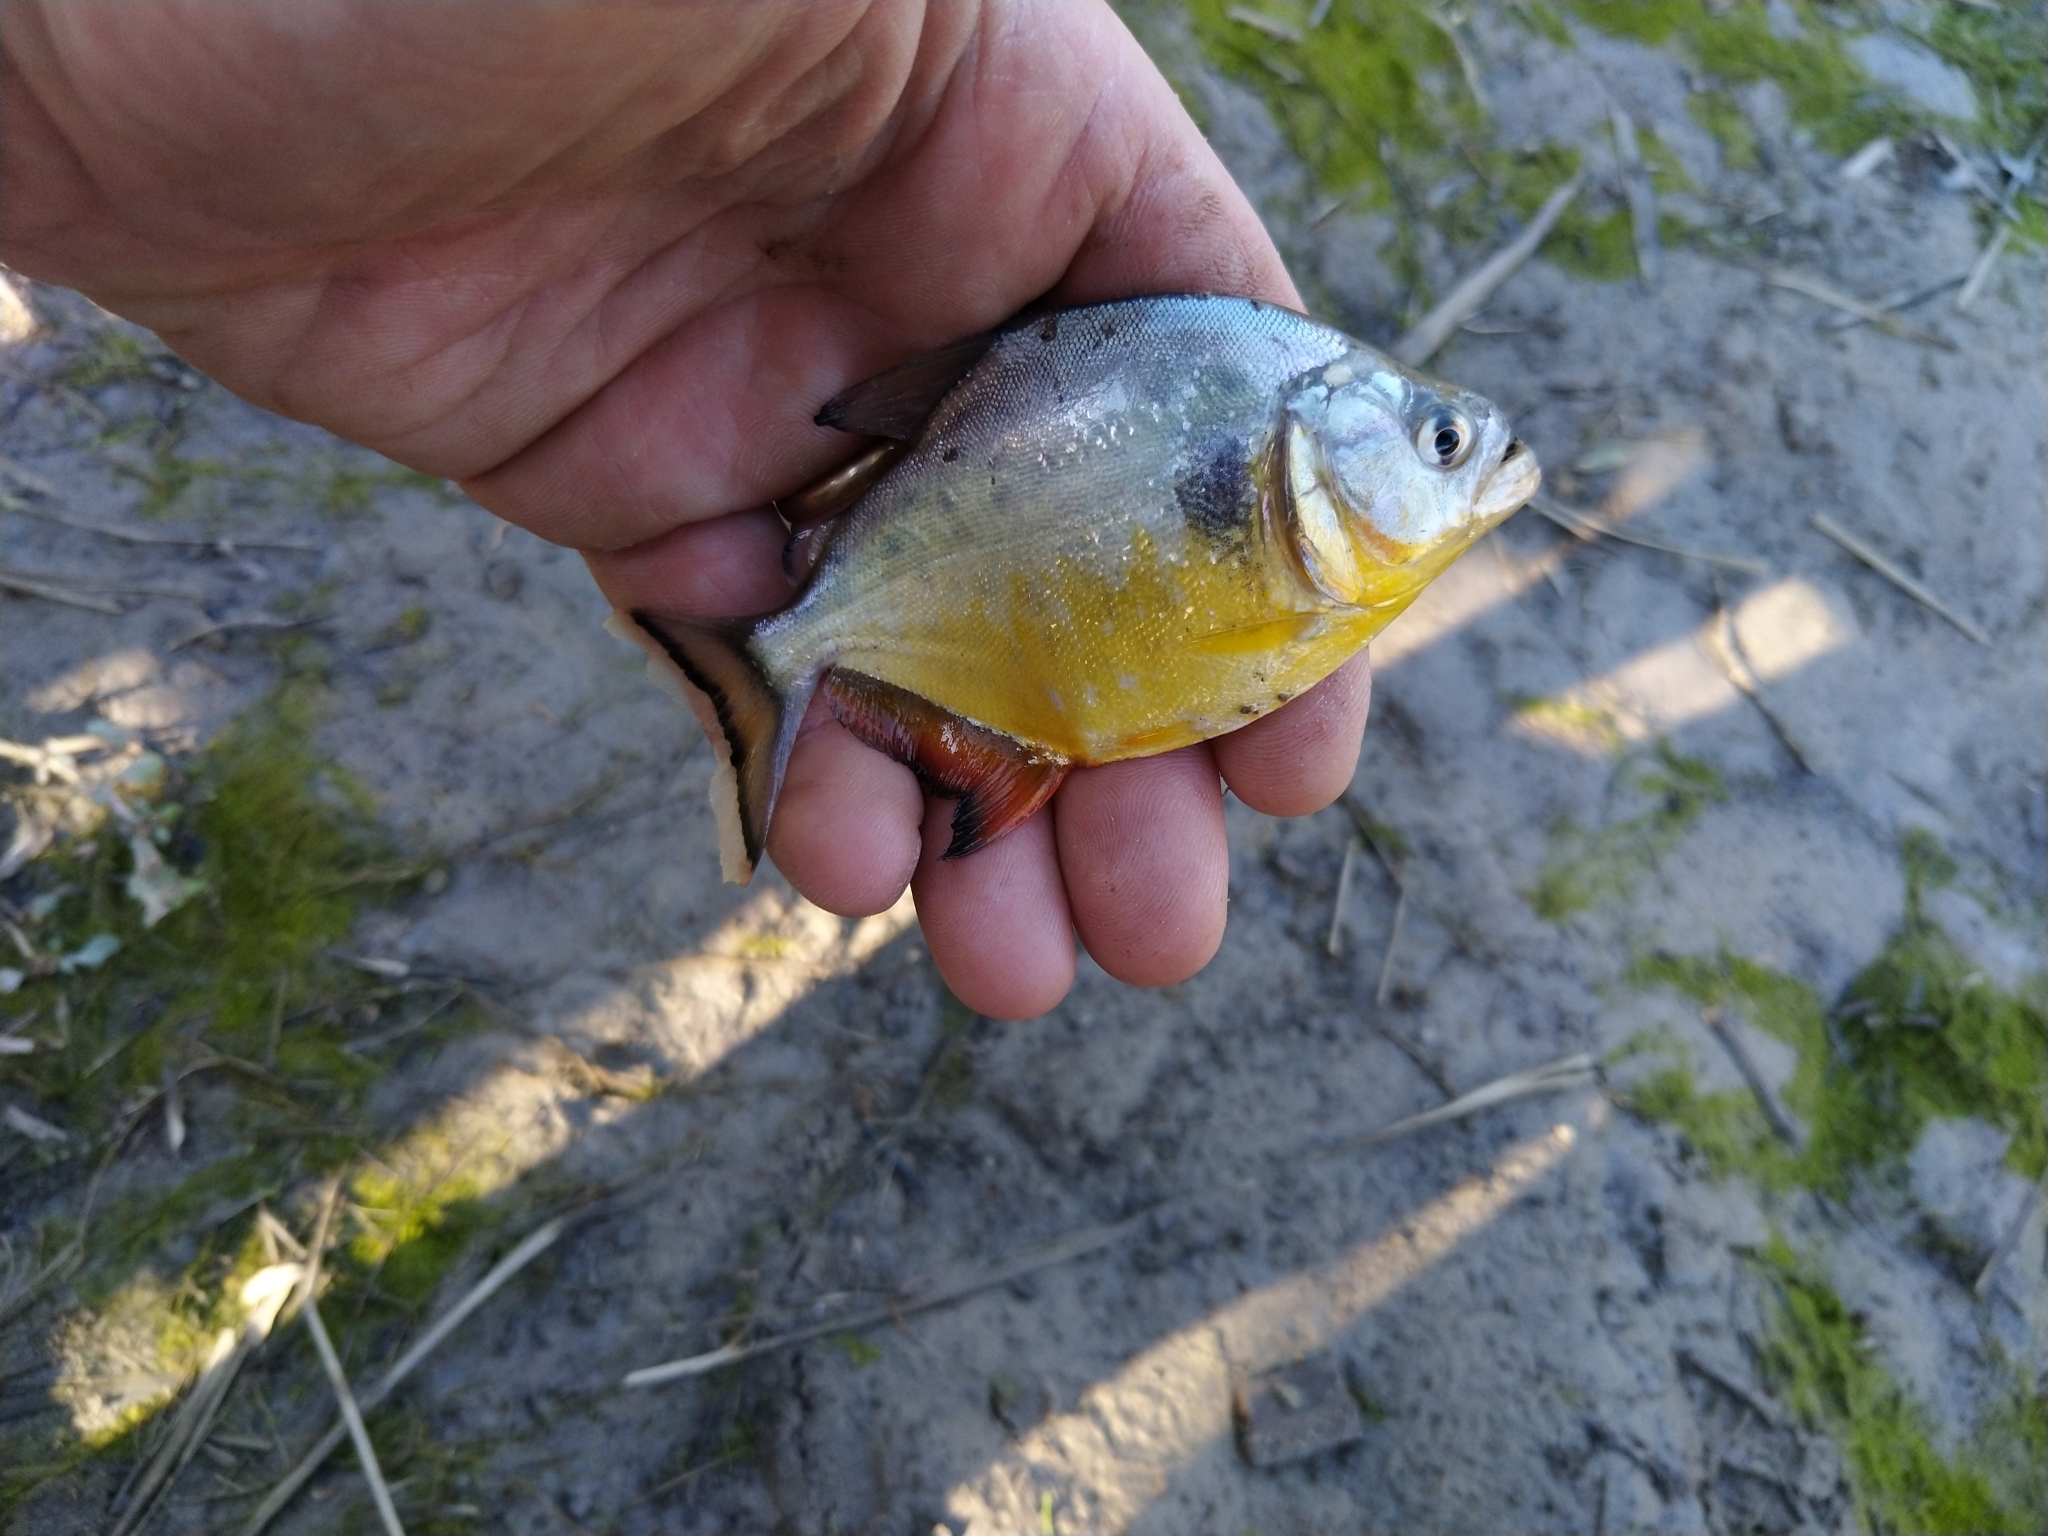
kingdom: Animalia
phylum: Chordata
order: Characiformes
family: Serrasalmidae
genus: Serrasalmus
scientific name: Serrasalmus maculatus
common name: Speckled piranha
